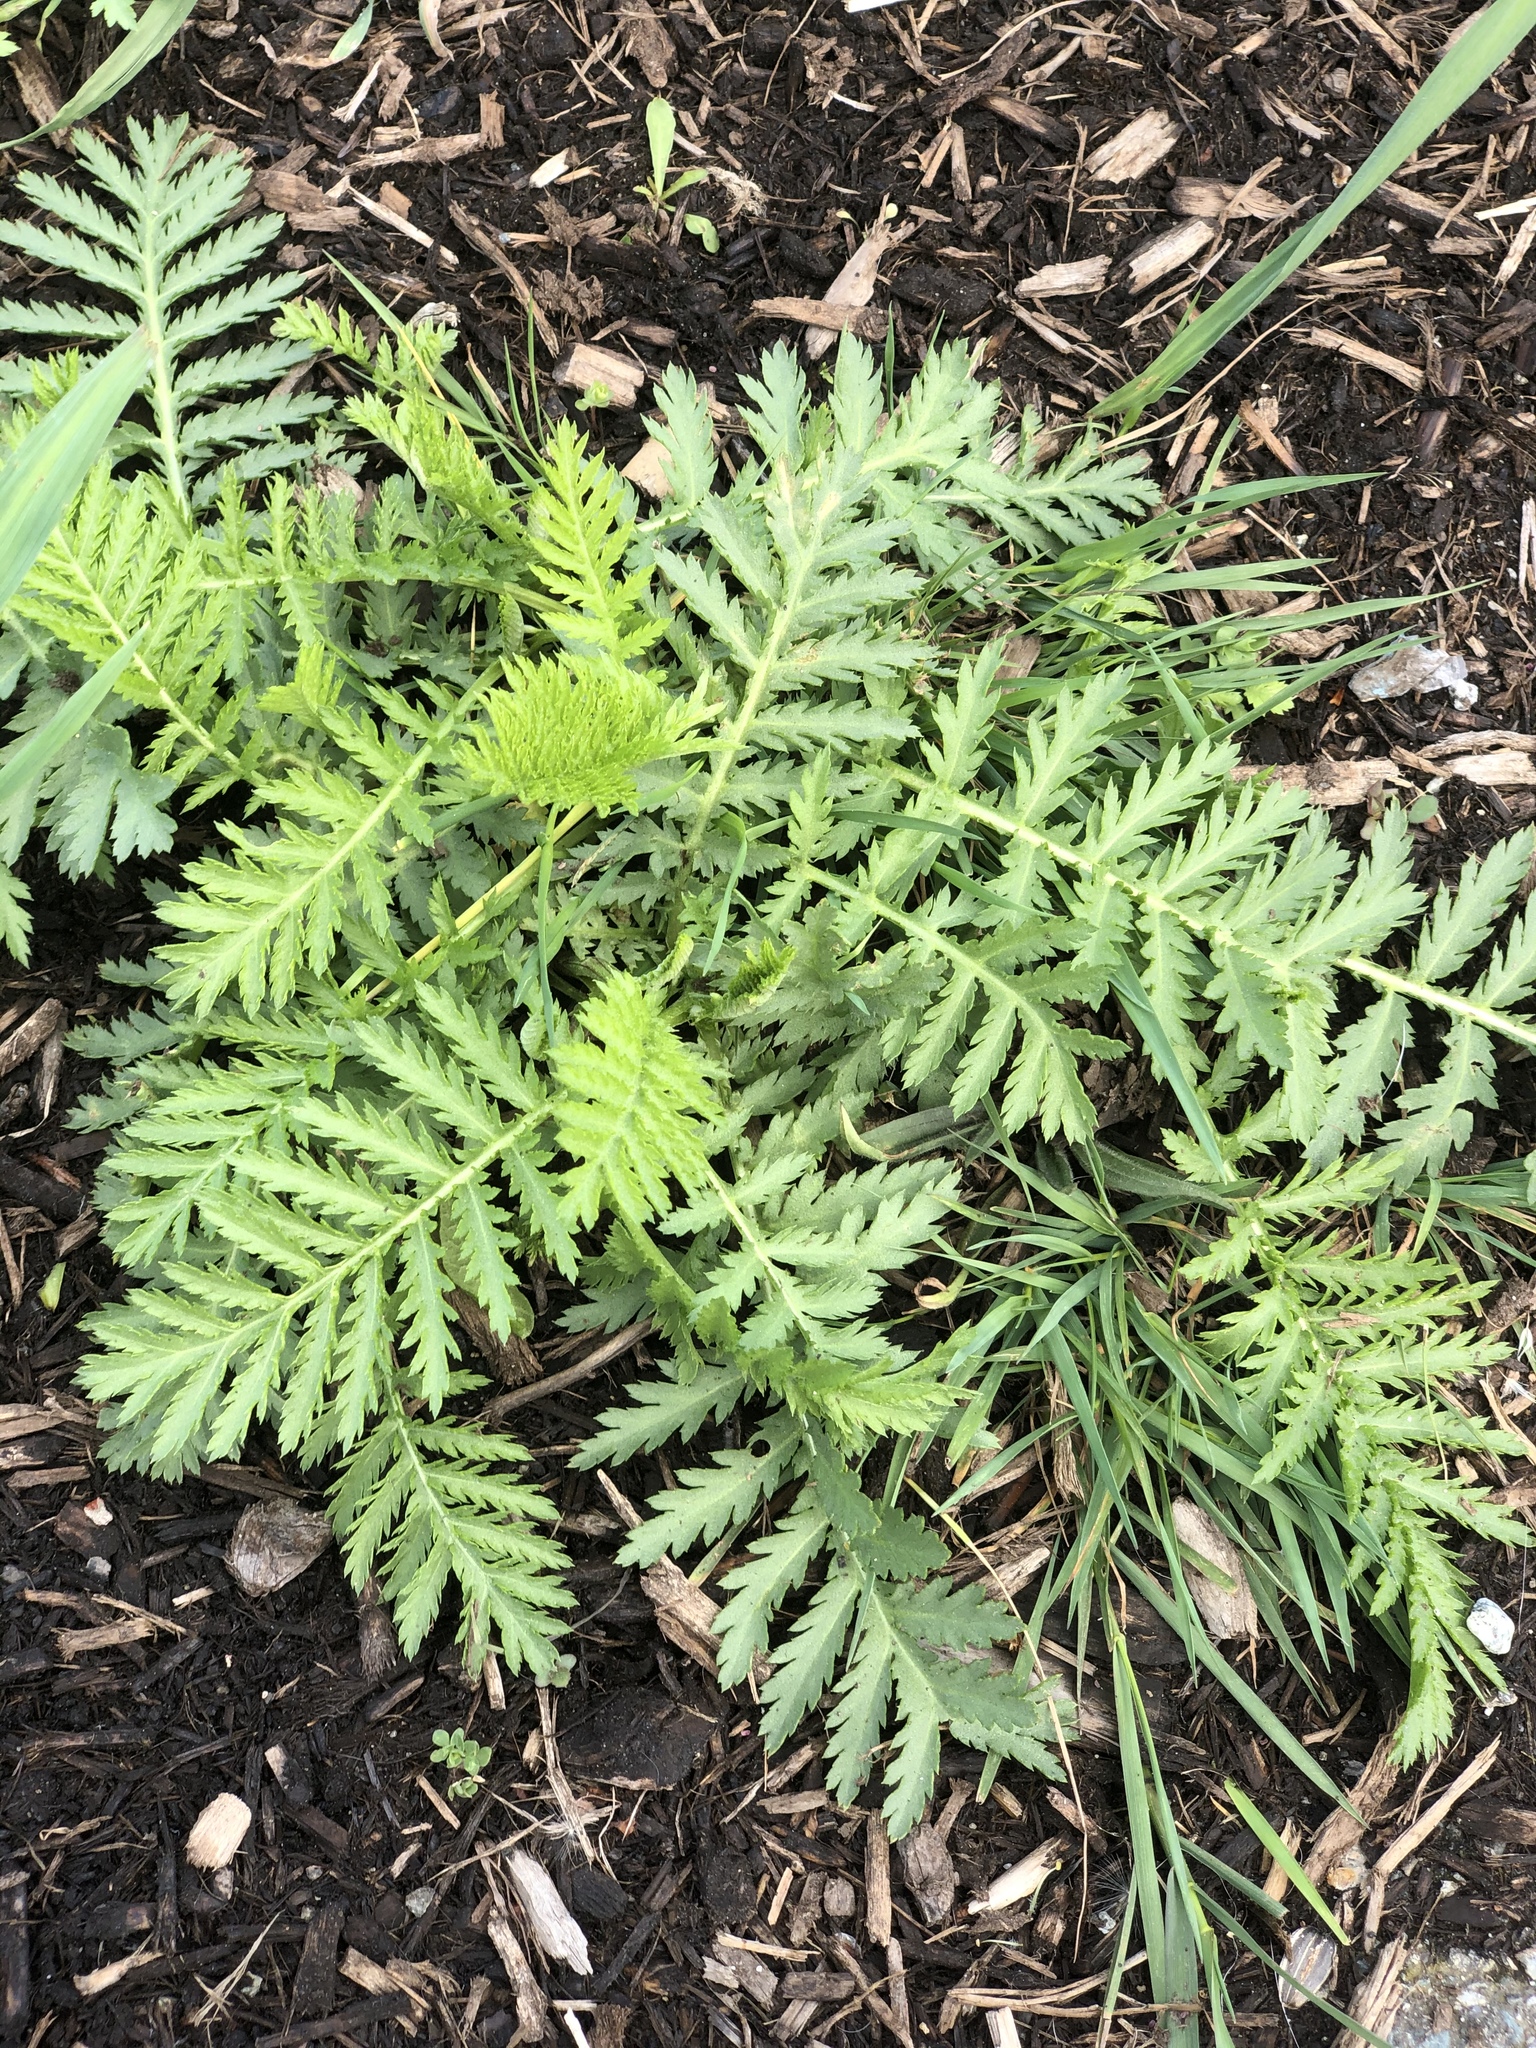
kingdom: Plantae
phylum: Tracheophyta
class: Magnoliopsida
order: Asterales
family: Asteraceae
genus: Tanacetum
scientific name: Tanacetum vulgare
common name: Common tansy
